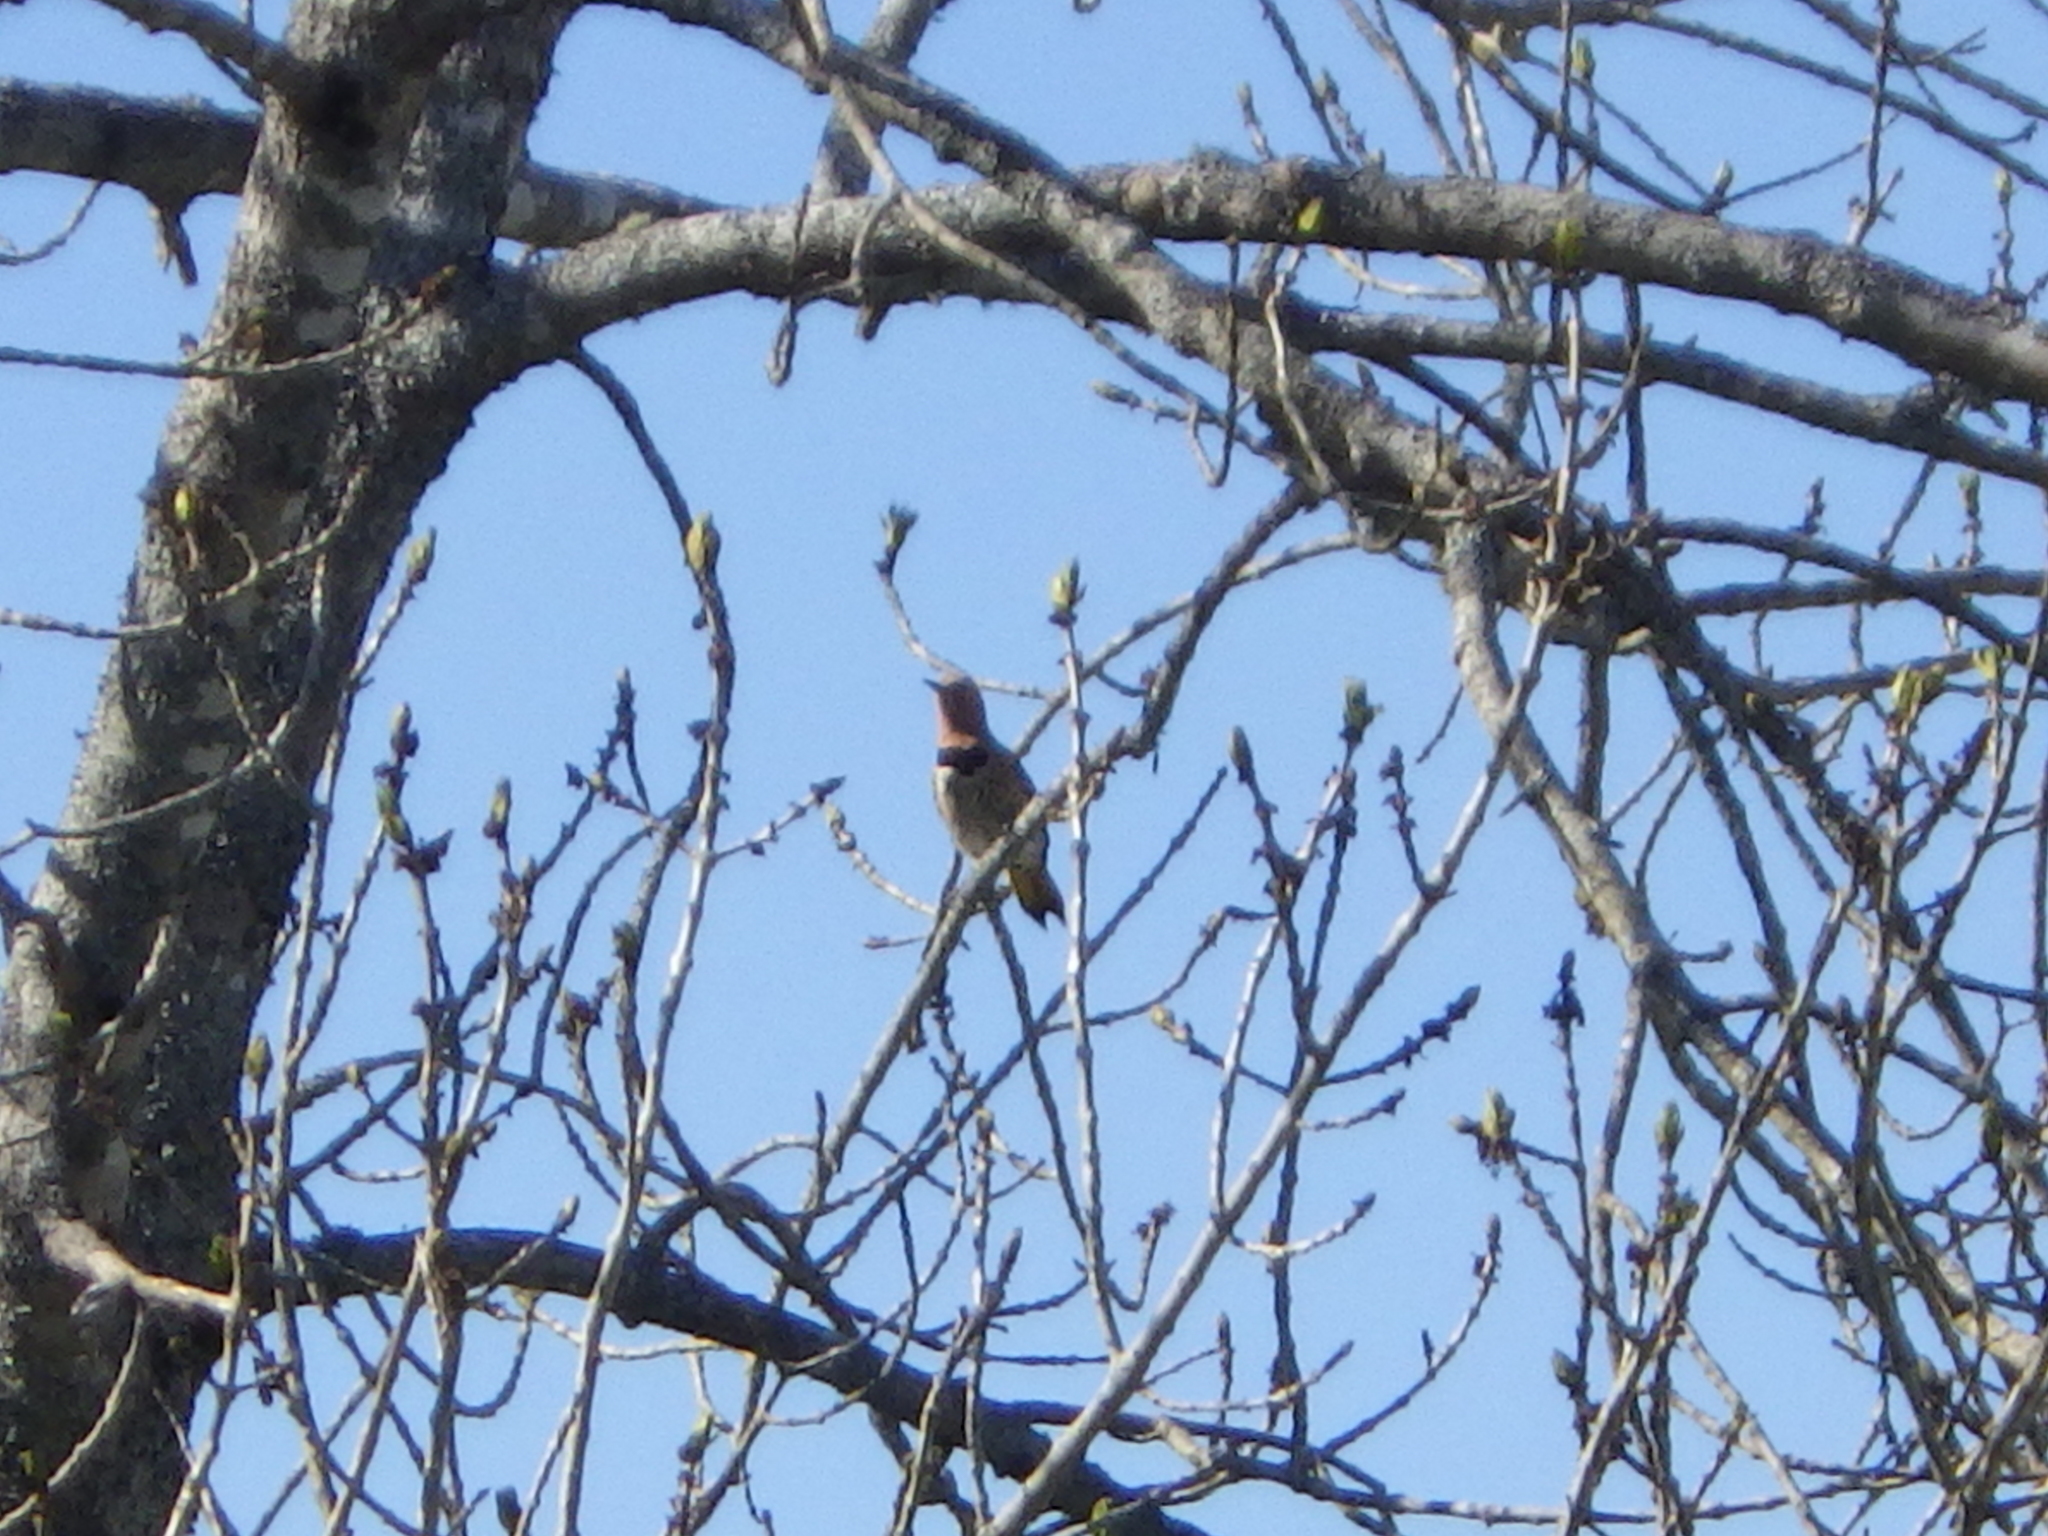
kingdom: Animalia
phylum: Chordata
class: Aves
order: Piciformes
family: Picidae
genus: Colaptes
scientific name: Colaptes auratus
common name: Northern flicker
